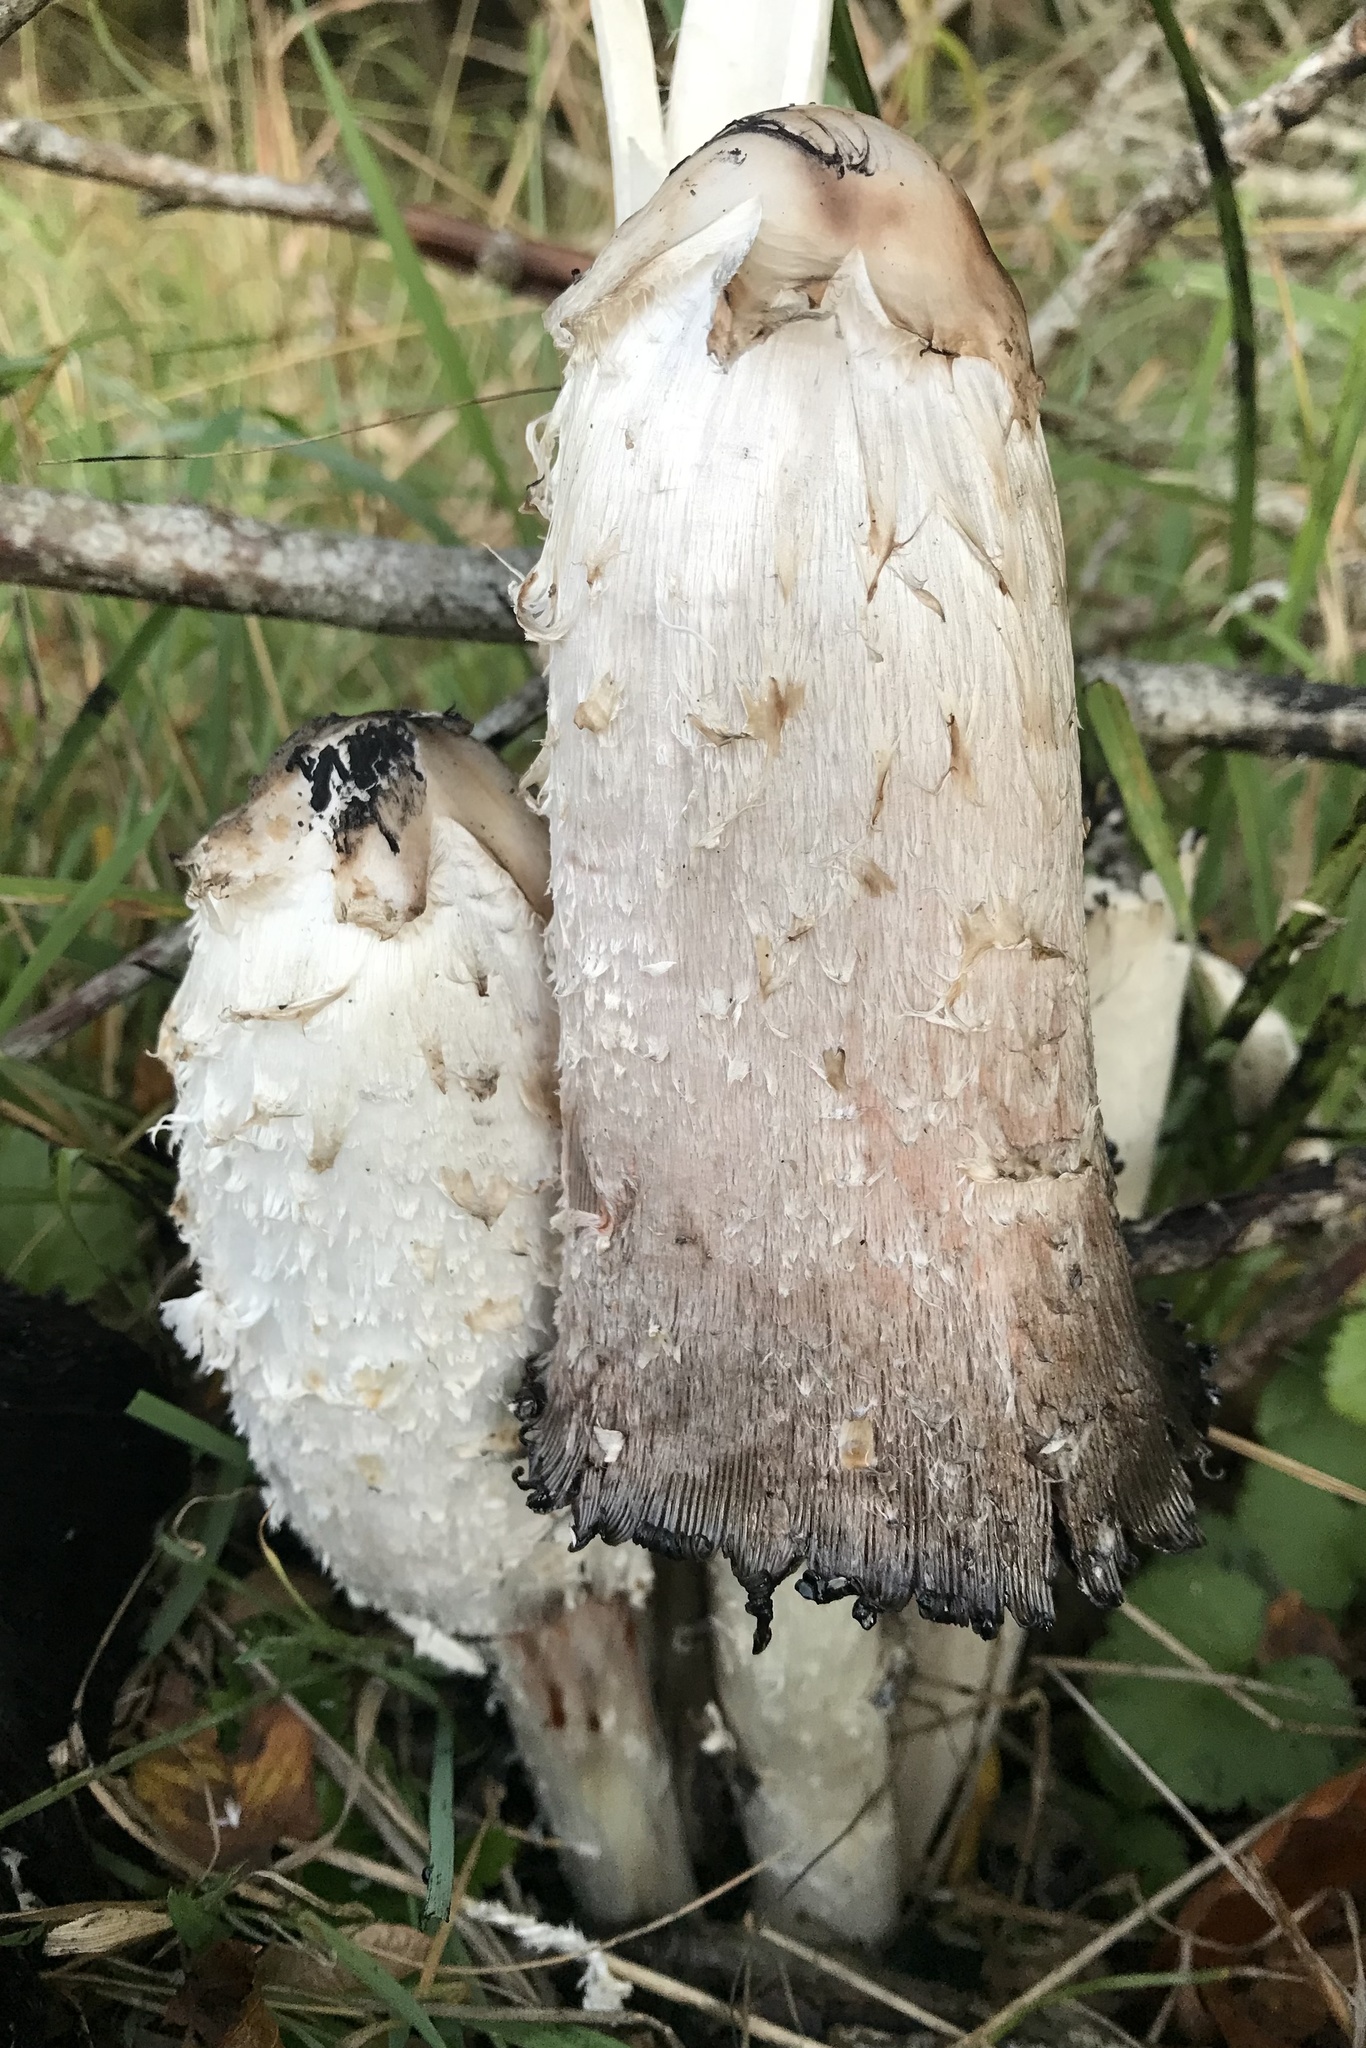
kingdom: Fungi
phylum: Basidiomycota
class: Agaricomycetes
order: Agaricales
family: Agaricaceae
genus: Coprinus
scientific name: Coprinus comatus
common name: Lawyer's wig
